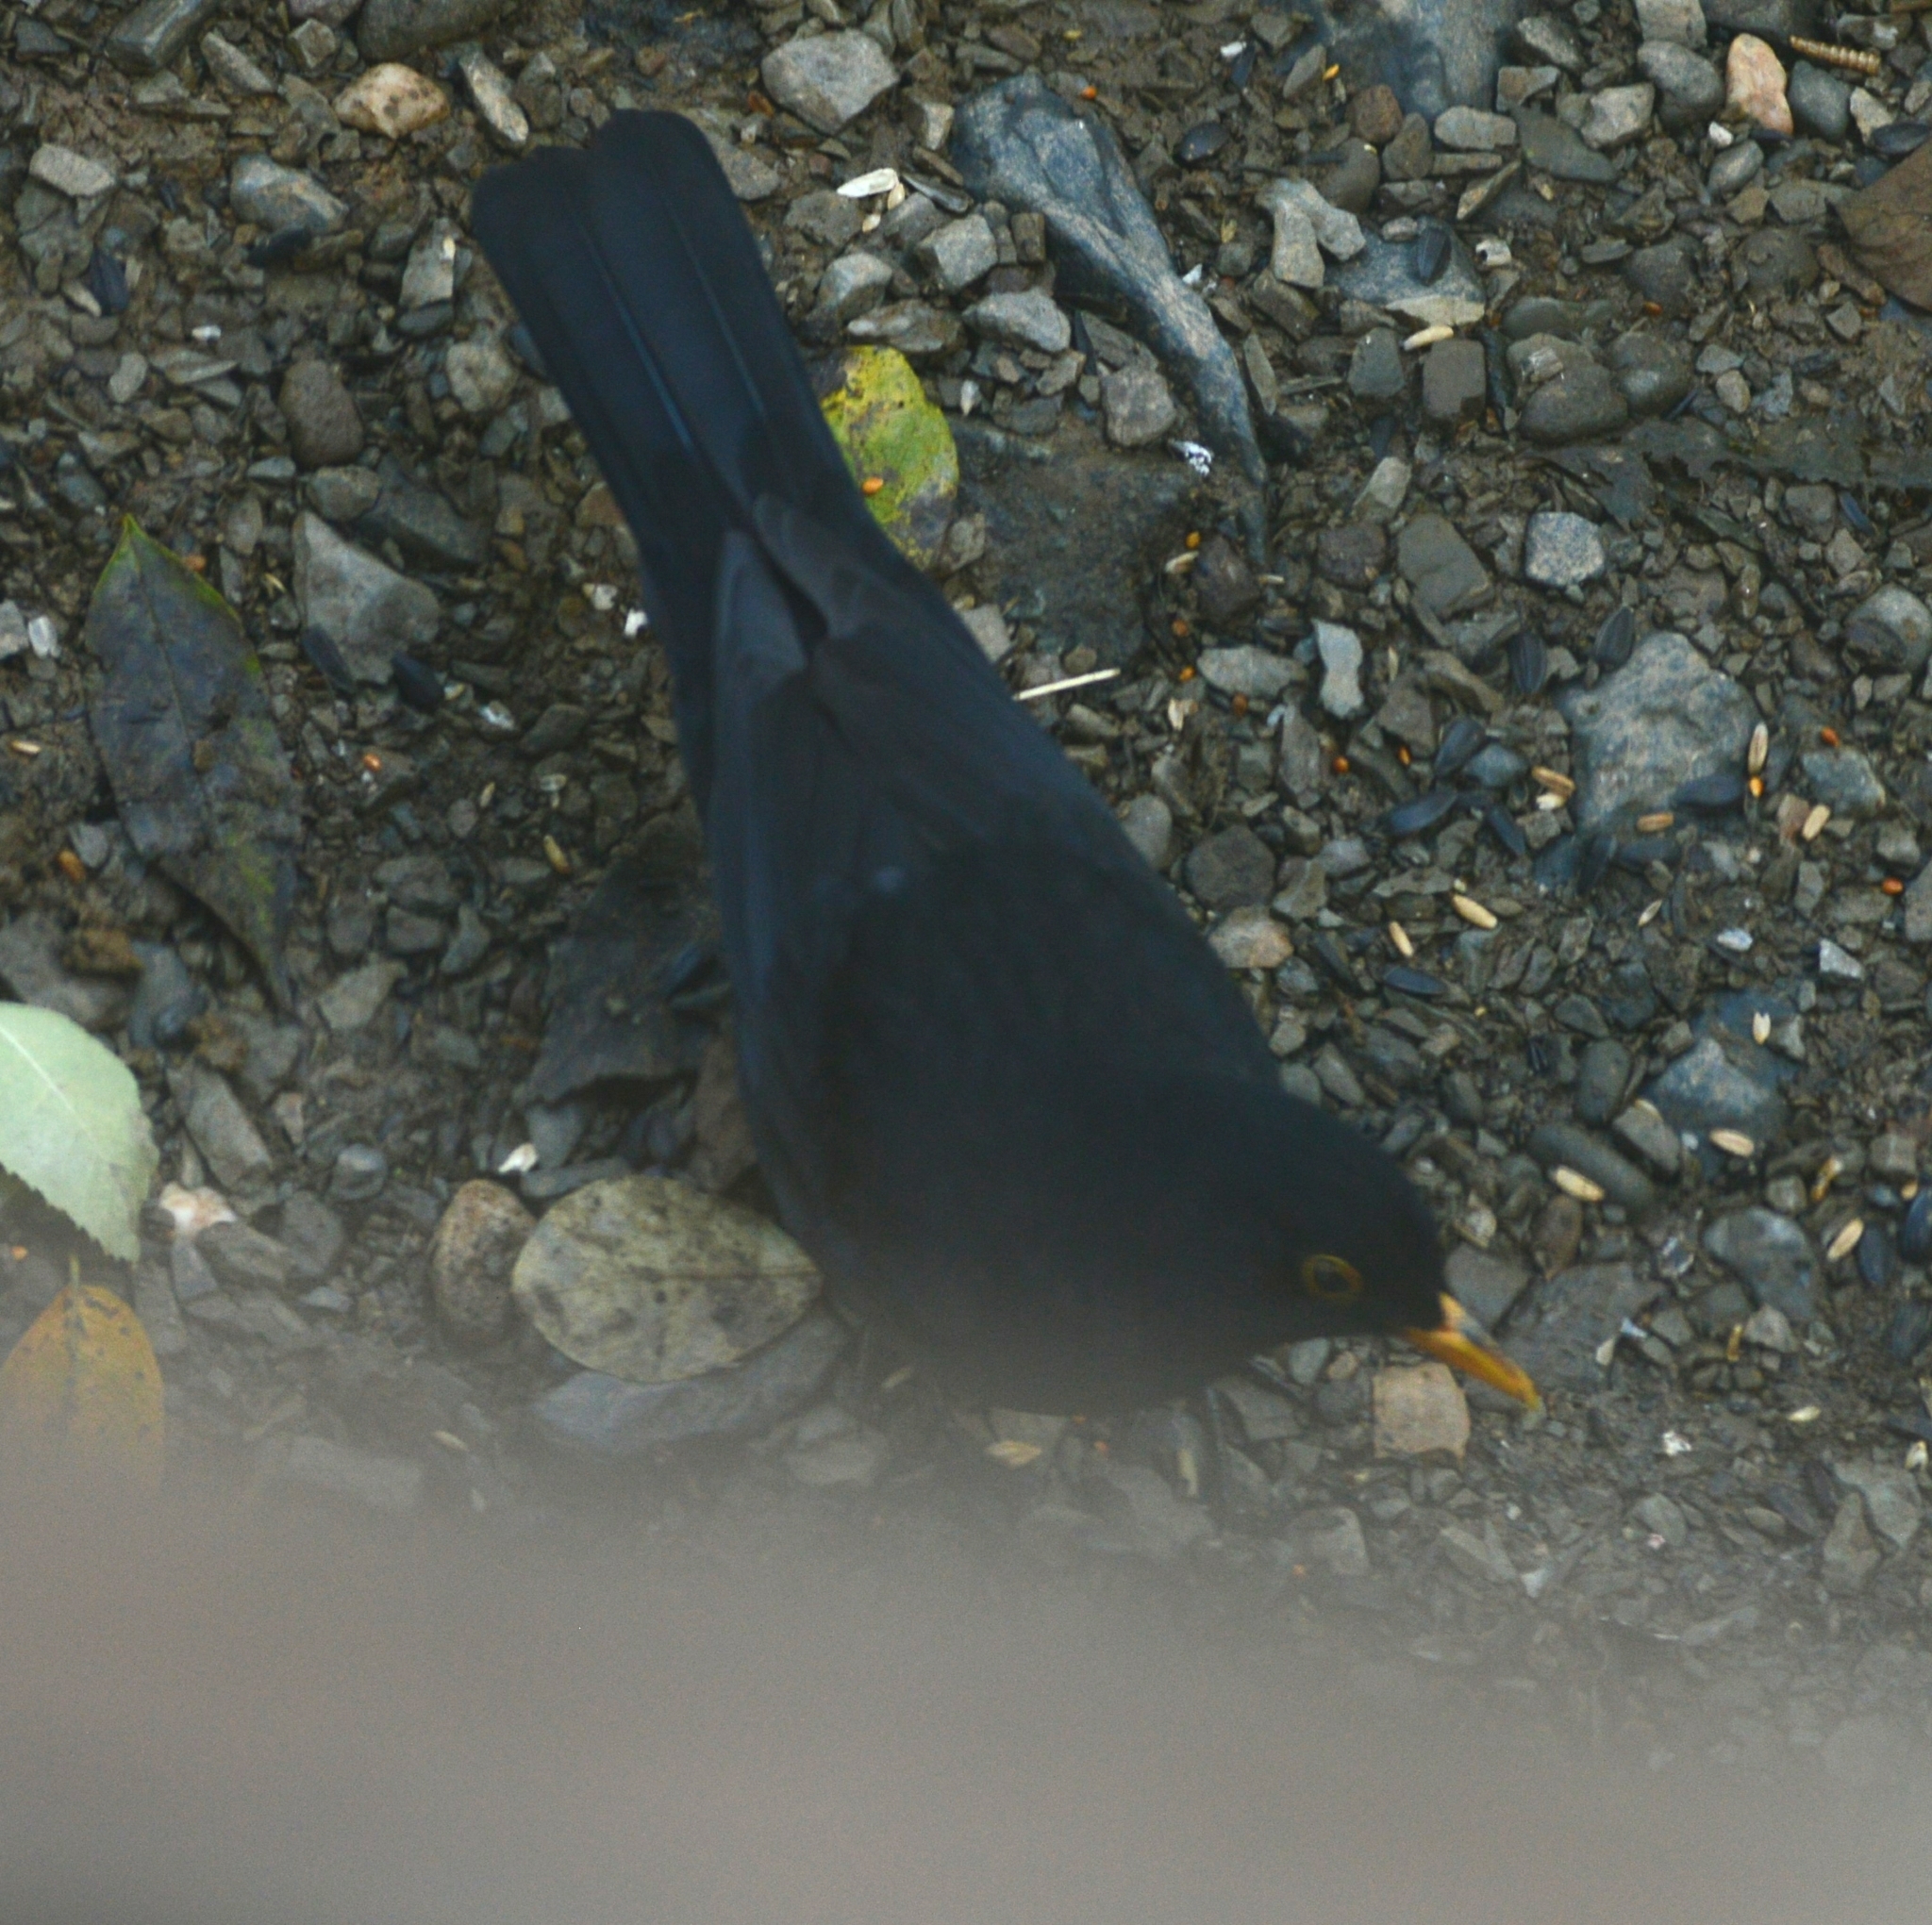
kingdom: Animalia
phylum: Chordata
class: Aves
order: Passeriformes
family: Turdidae
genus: Turdus
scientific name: Turdus merula
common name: Common blackbird
